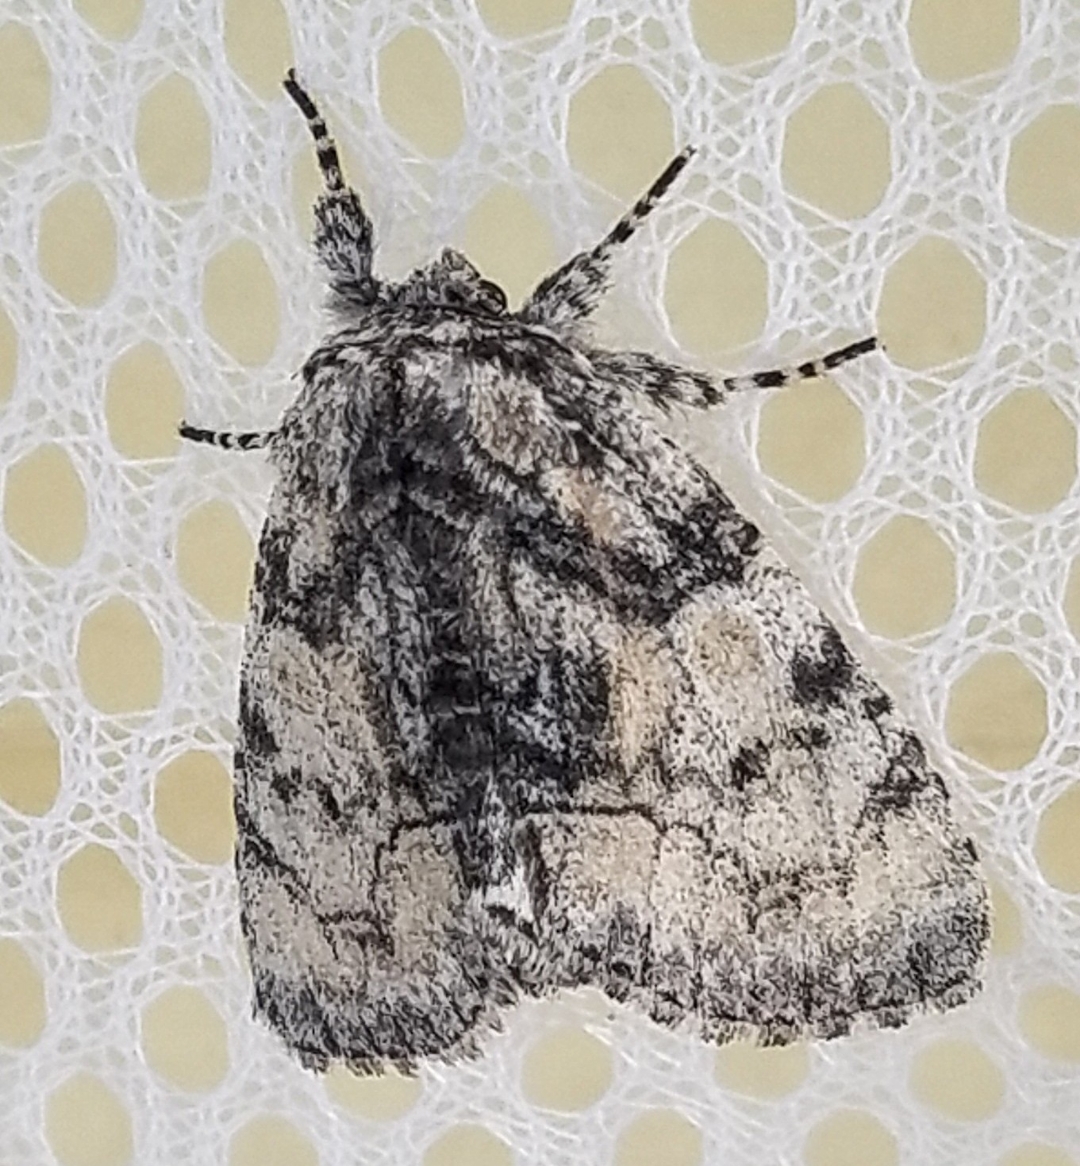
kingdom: Animalia
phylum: Arthropoda
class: Insecta
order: Lepidoptera
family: Noctuidae
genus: Raphia
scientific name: Raphia frater
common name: Brother
